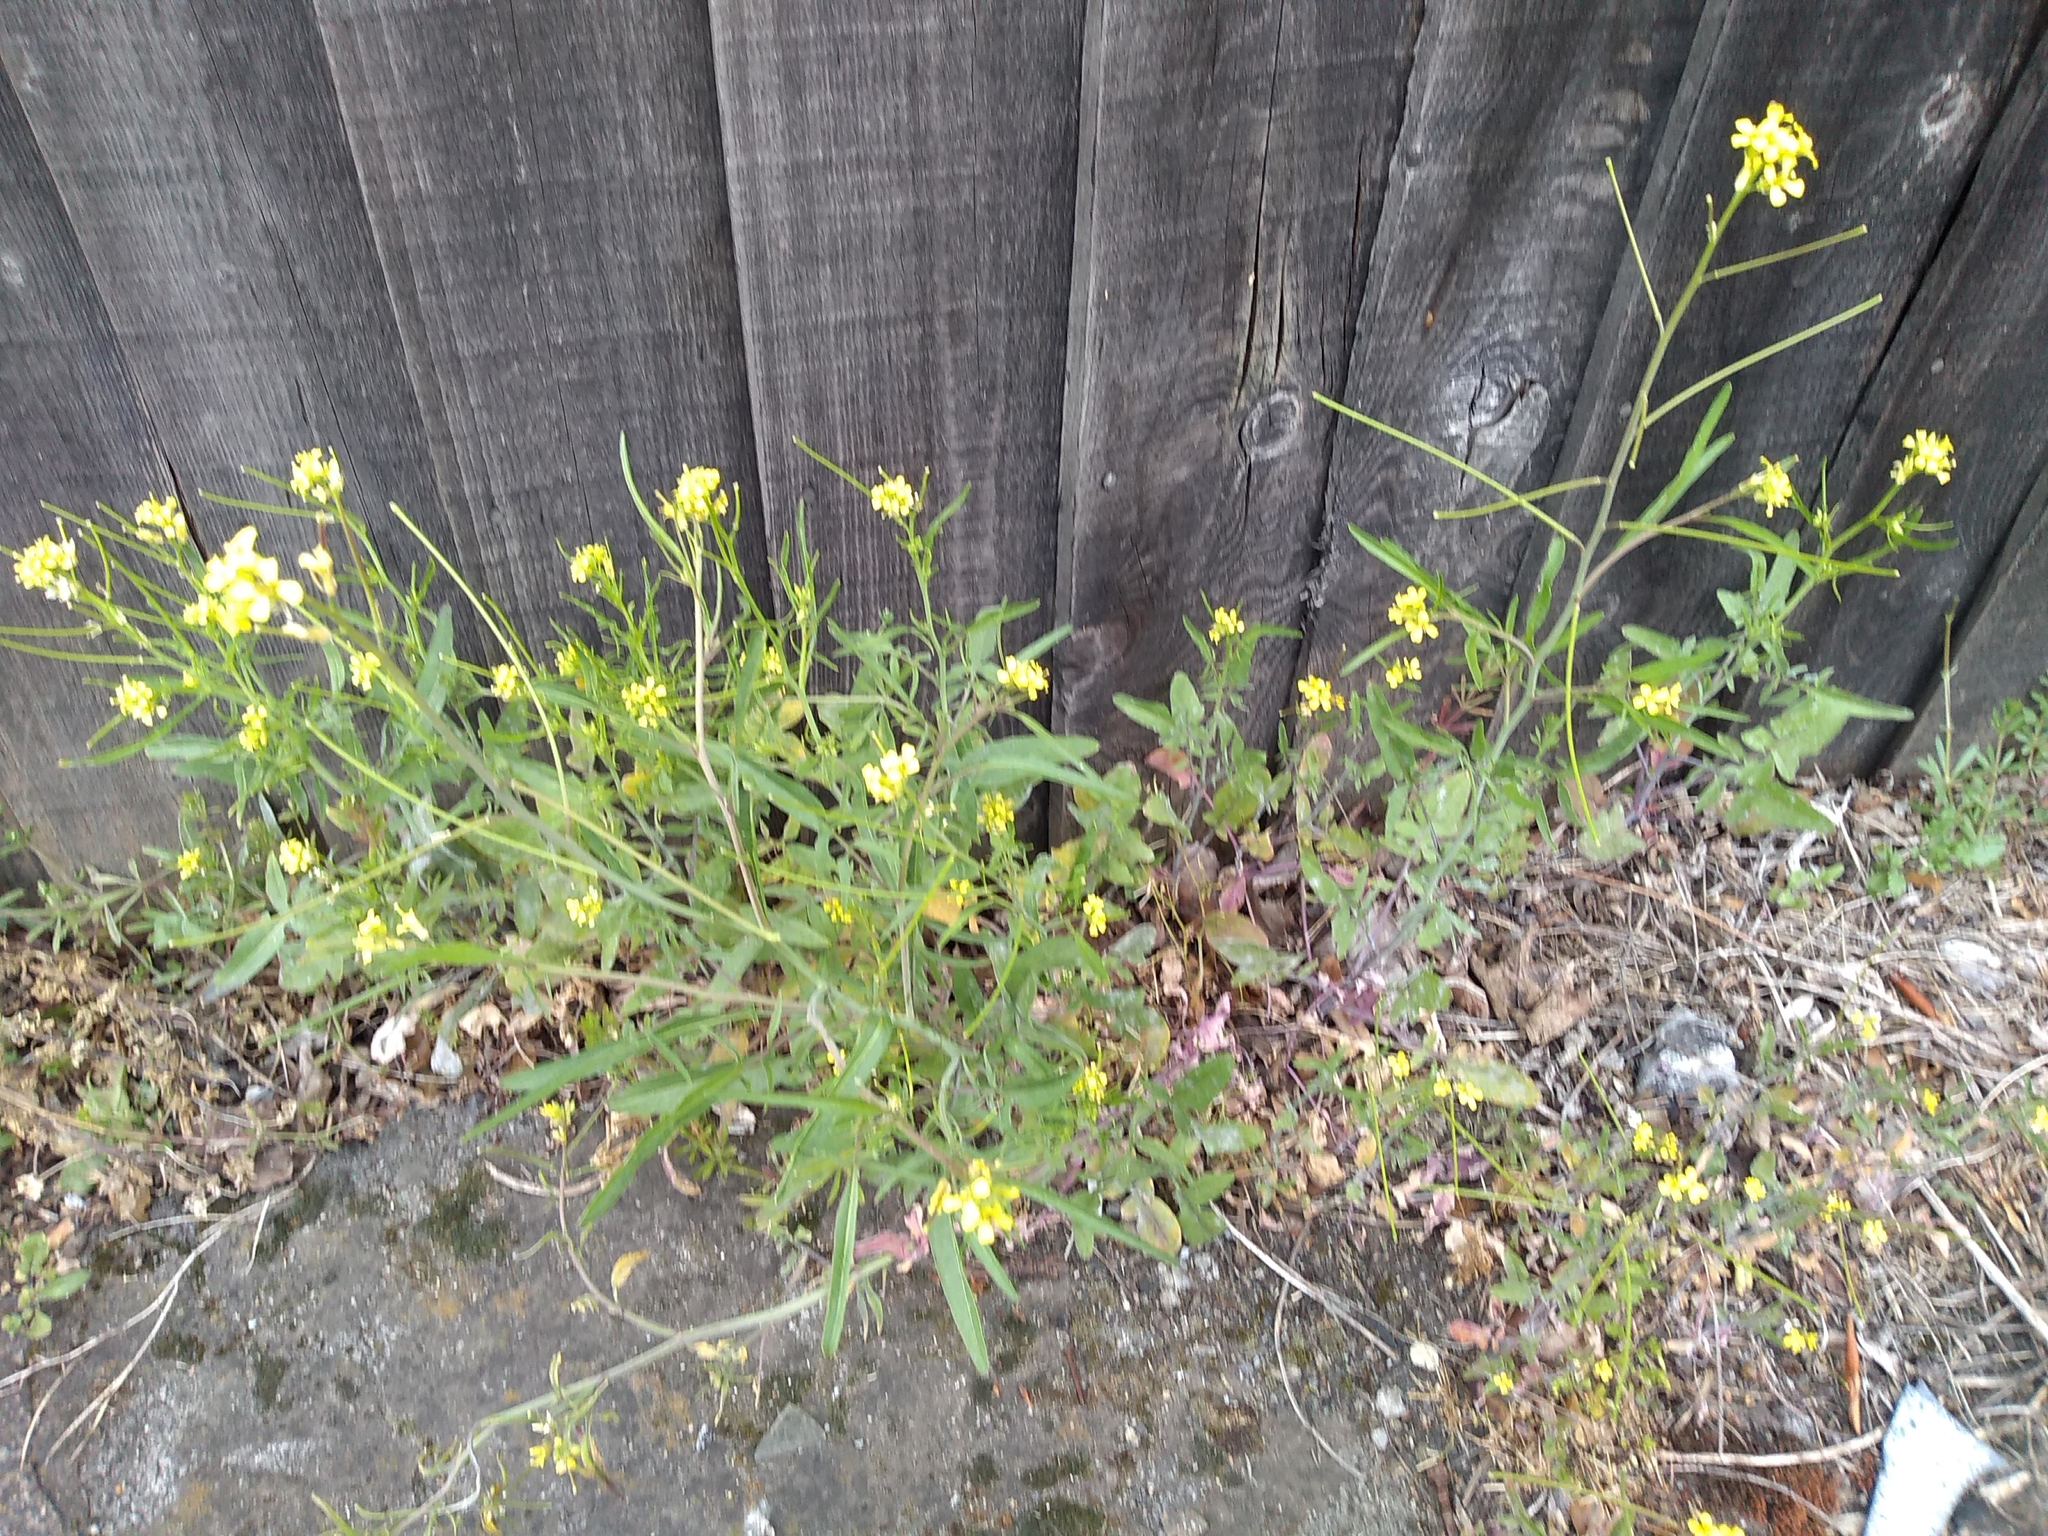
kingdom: Plantae
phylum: Tracheophyta
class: Magnoliopsida
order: Brassicales
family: Brassicaceae
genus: Sisymbrium
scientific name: Sisymbrium orientale
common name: Eastern rocket
